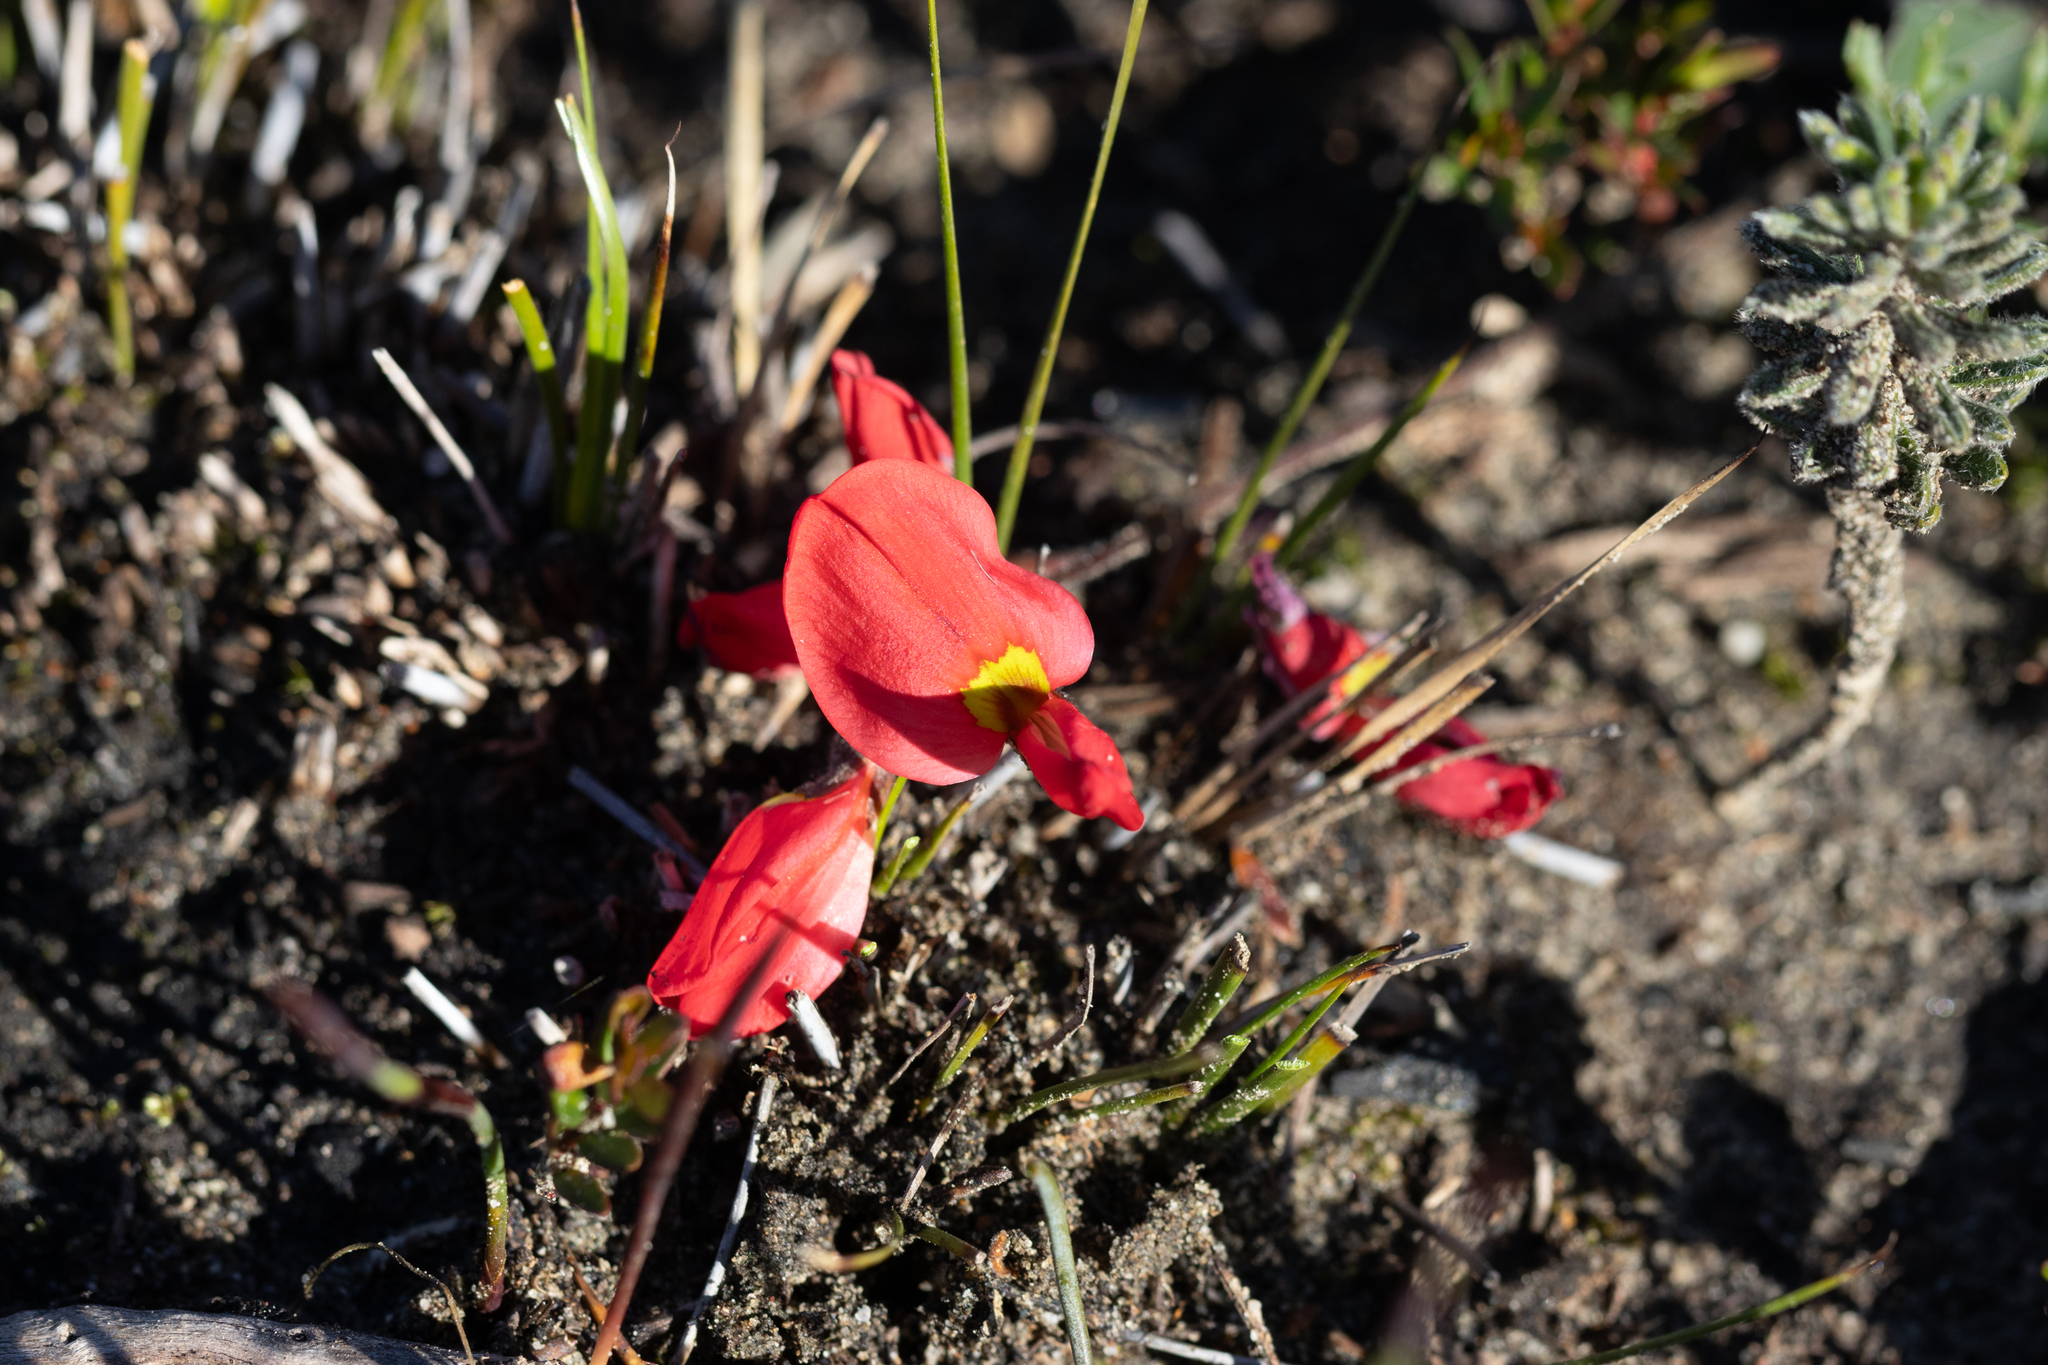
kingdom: Plantae
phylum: Tracheophyta
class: Magnoliopsida
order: Fabales
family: Fabaceae
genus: Kennedia
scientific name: Kennedia prostrata
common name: Running-postman
